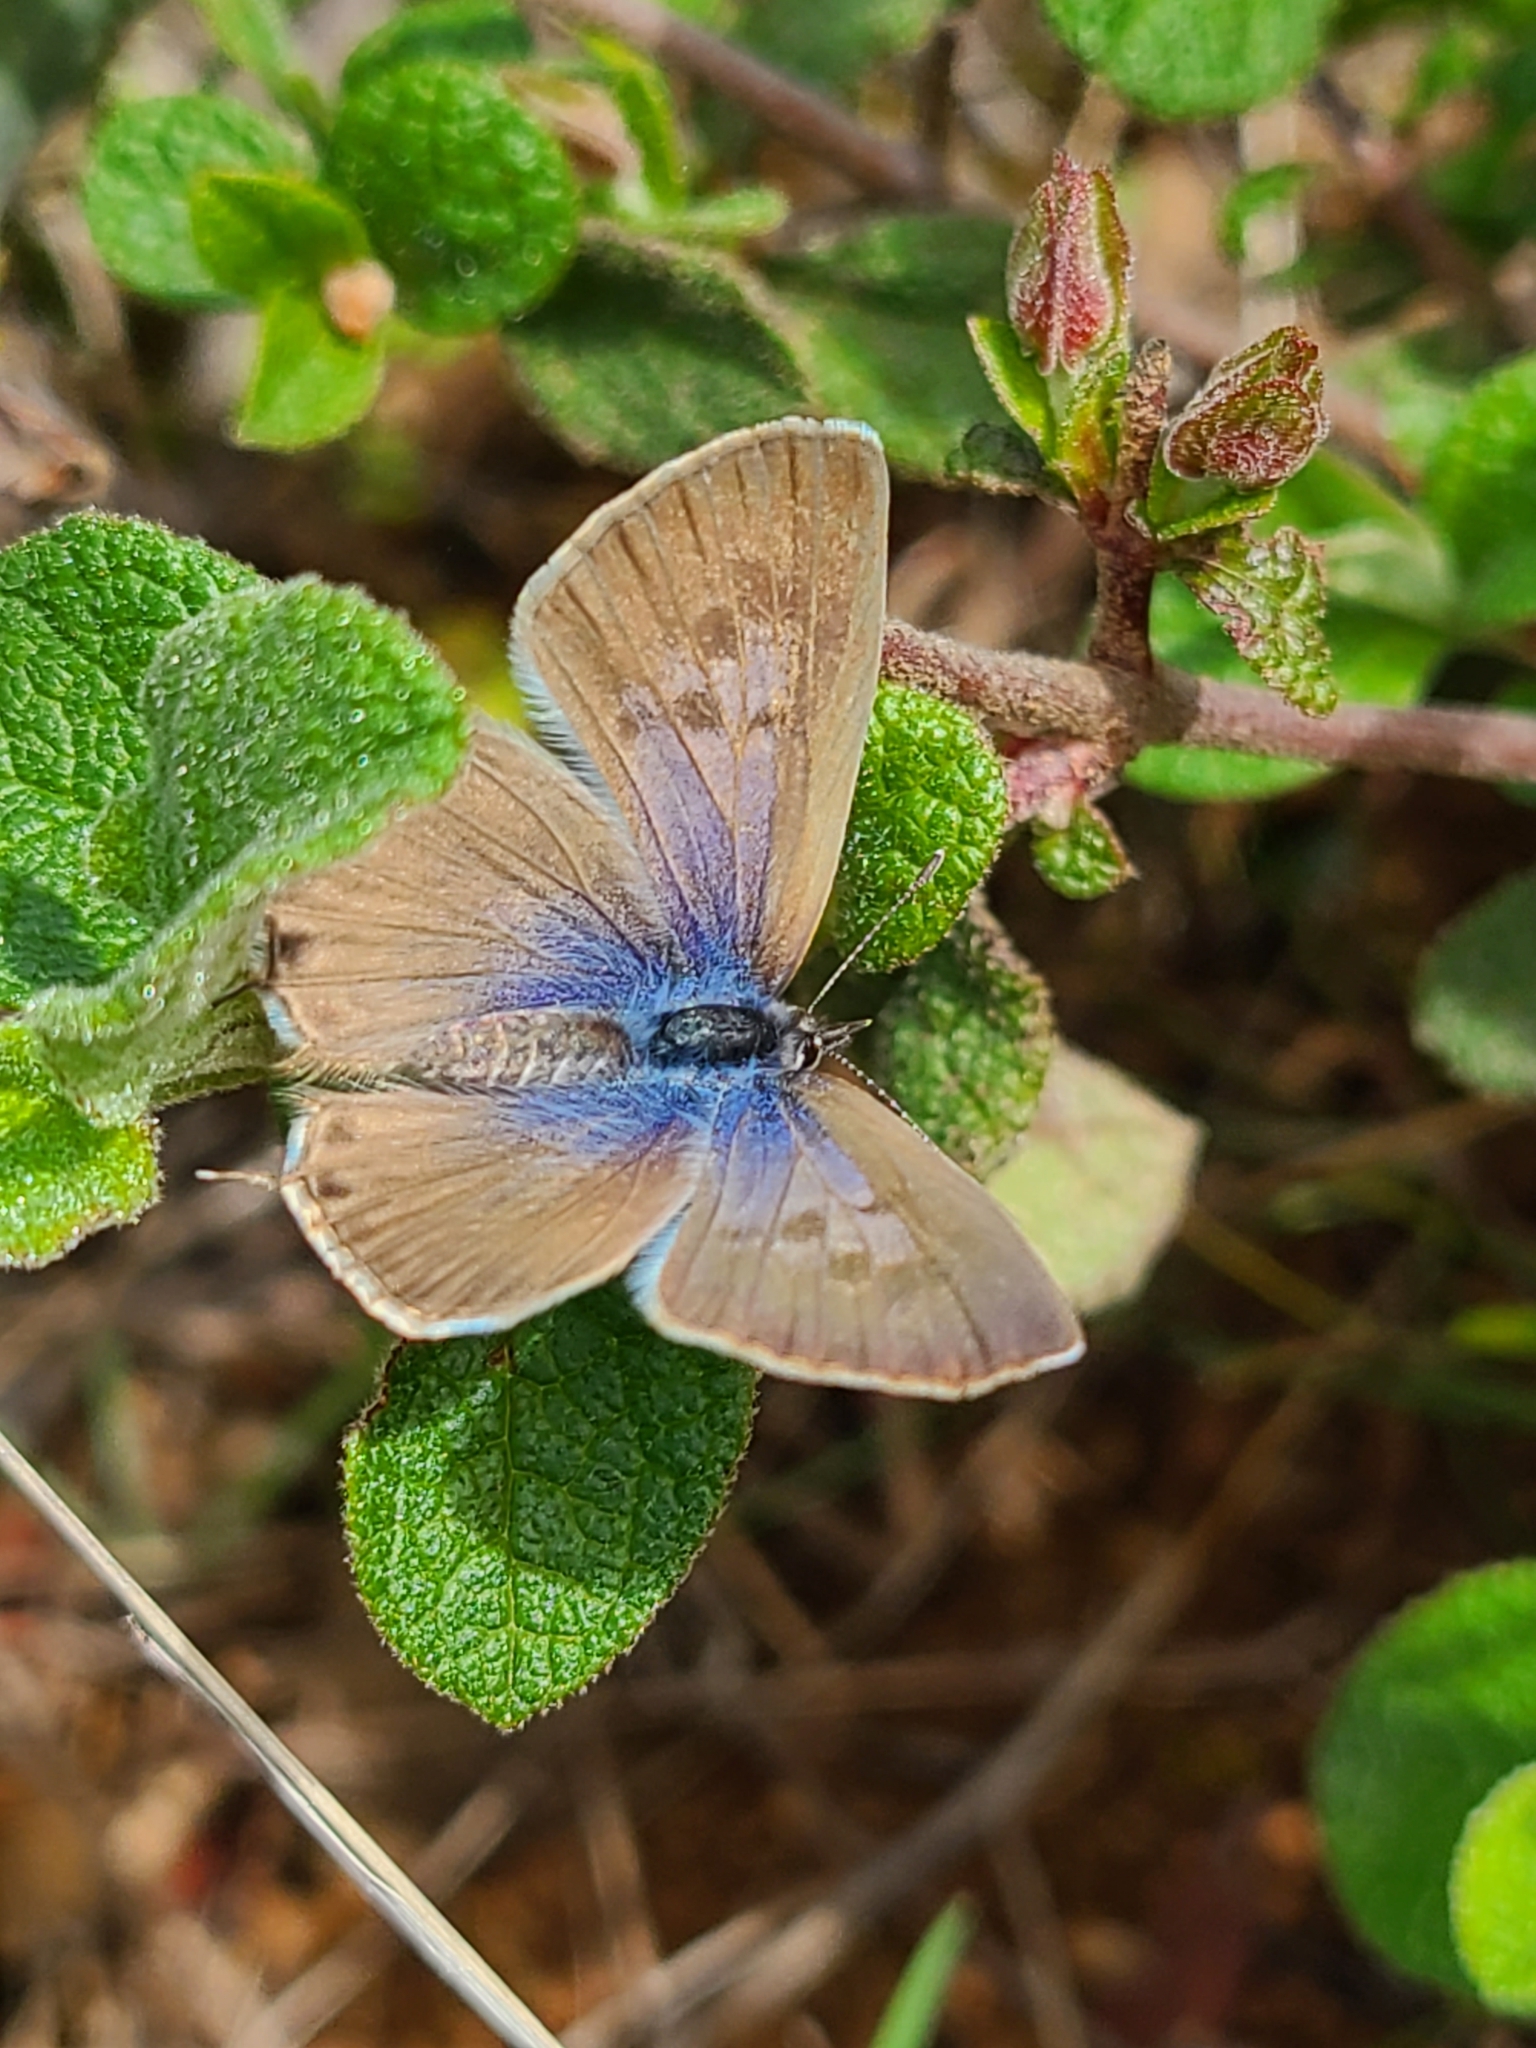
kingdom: Animalia
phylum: Arthropoda
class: Insecta
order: Lepidoptera
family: Lycaenidae
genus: Leptotes
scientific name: Leptotes pirithous
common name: Lang's short-tailed blue
